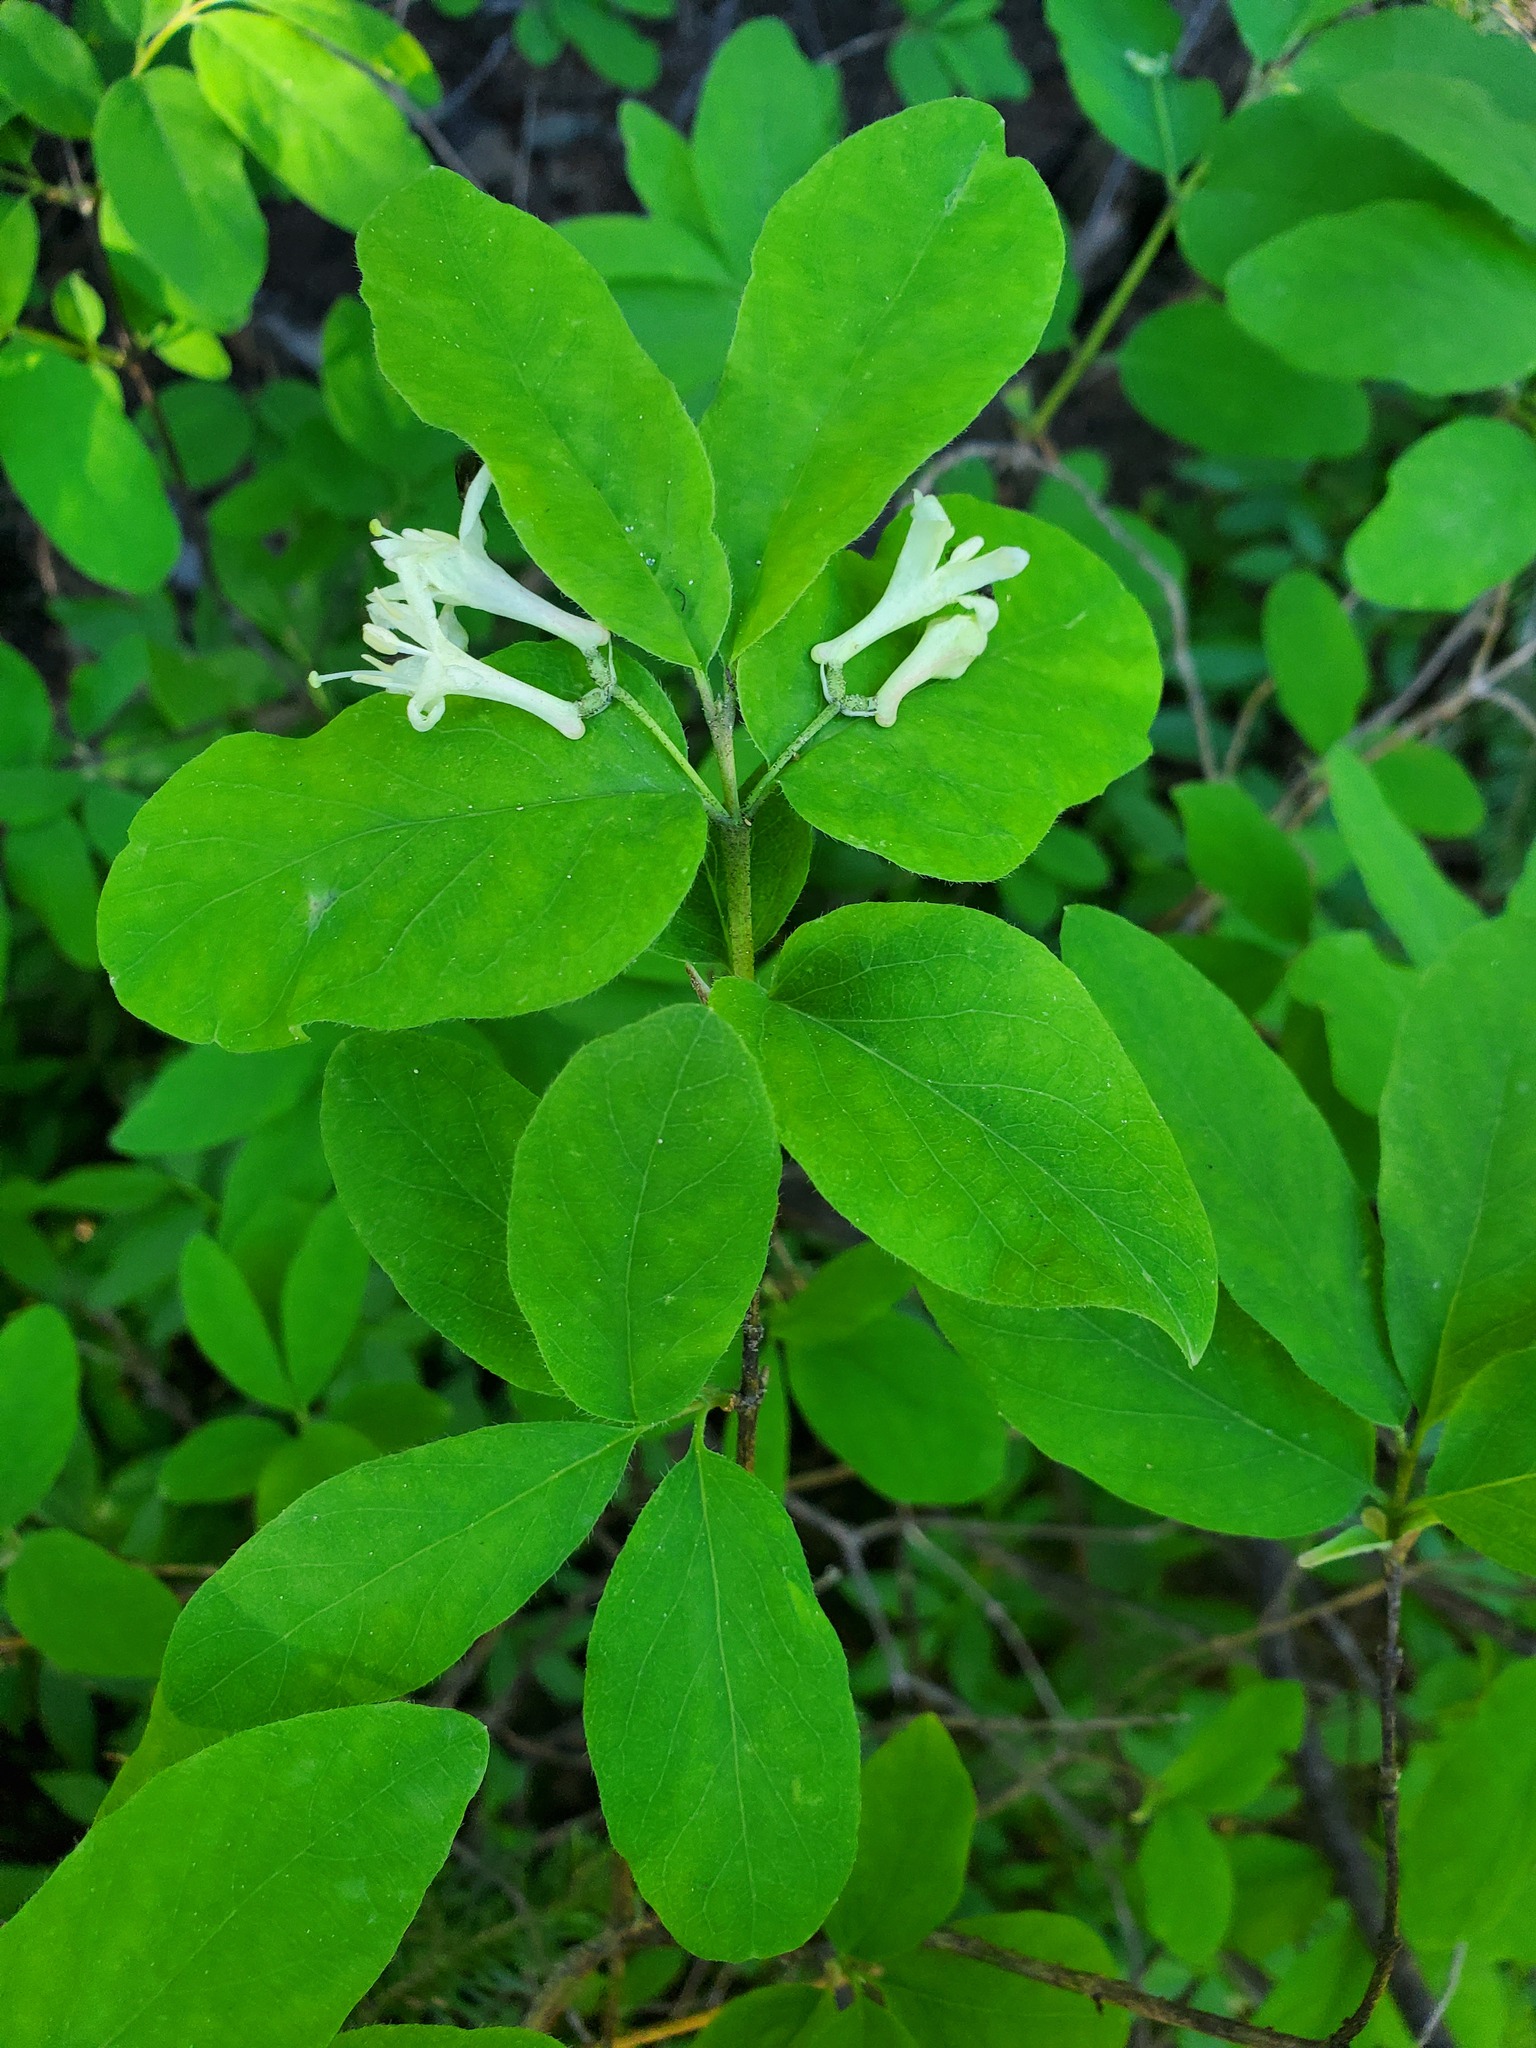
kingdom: Plantae
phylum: Tracheophyta
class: Magnoliopsida
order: Dipsacales
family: Caprifoliaceae
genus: Lonicera
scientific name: Lonicera utahensis
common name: Utah honeysuckle
